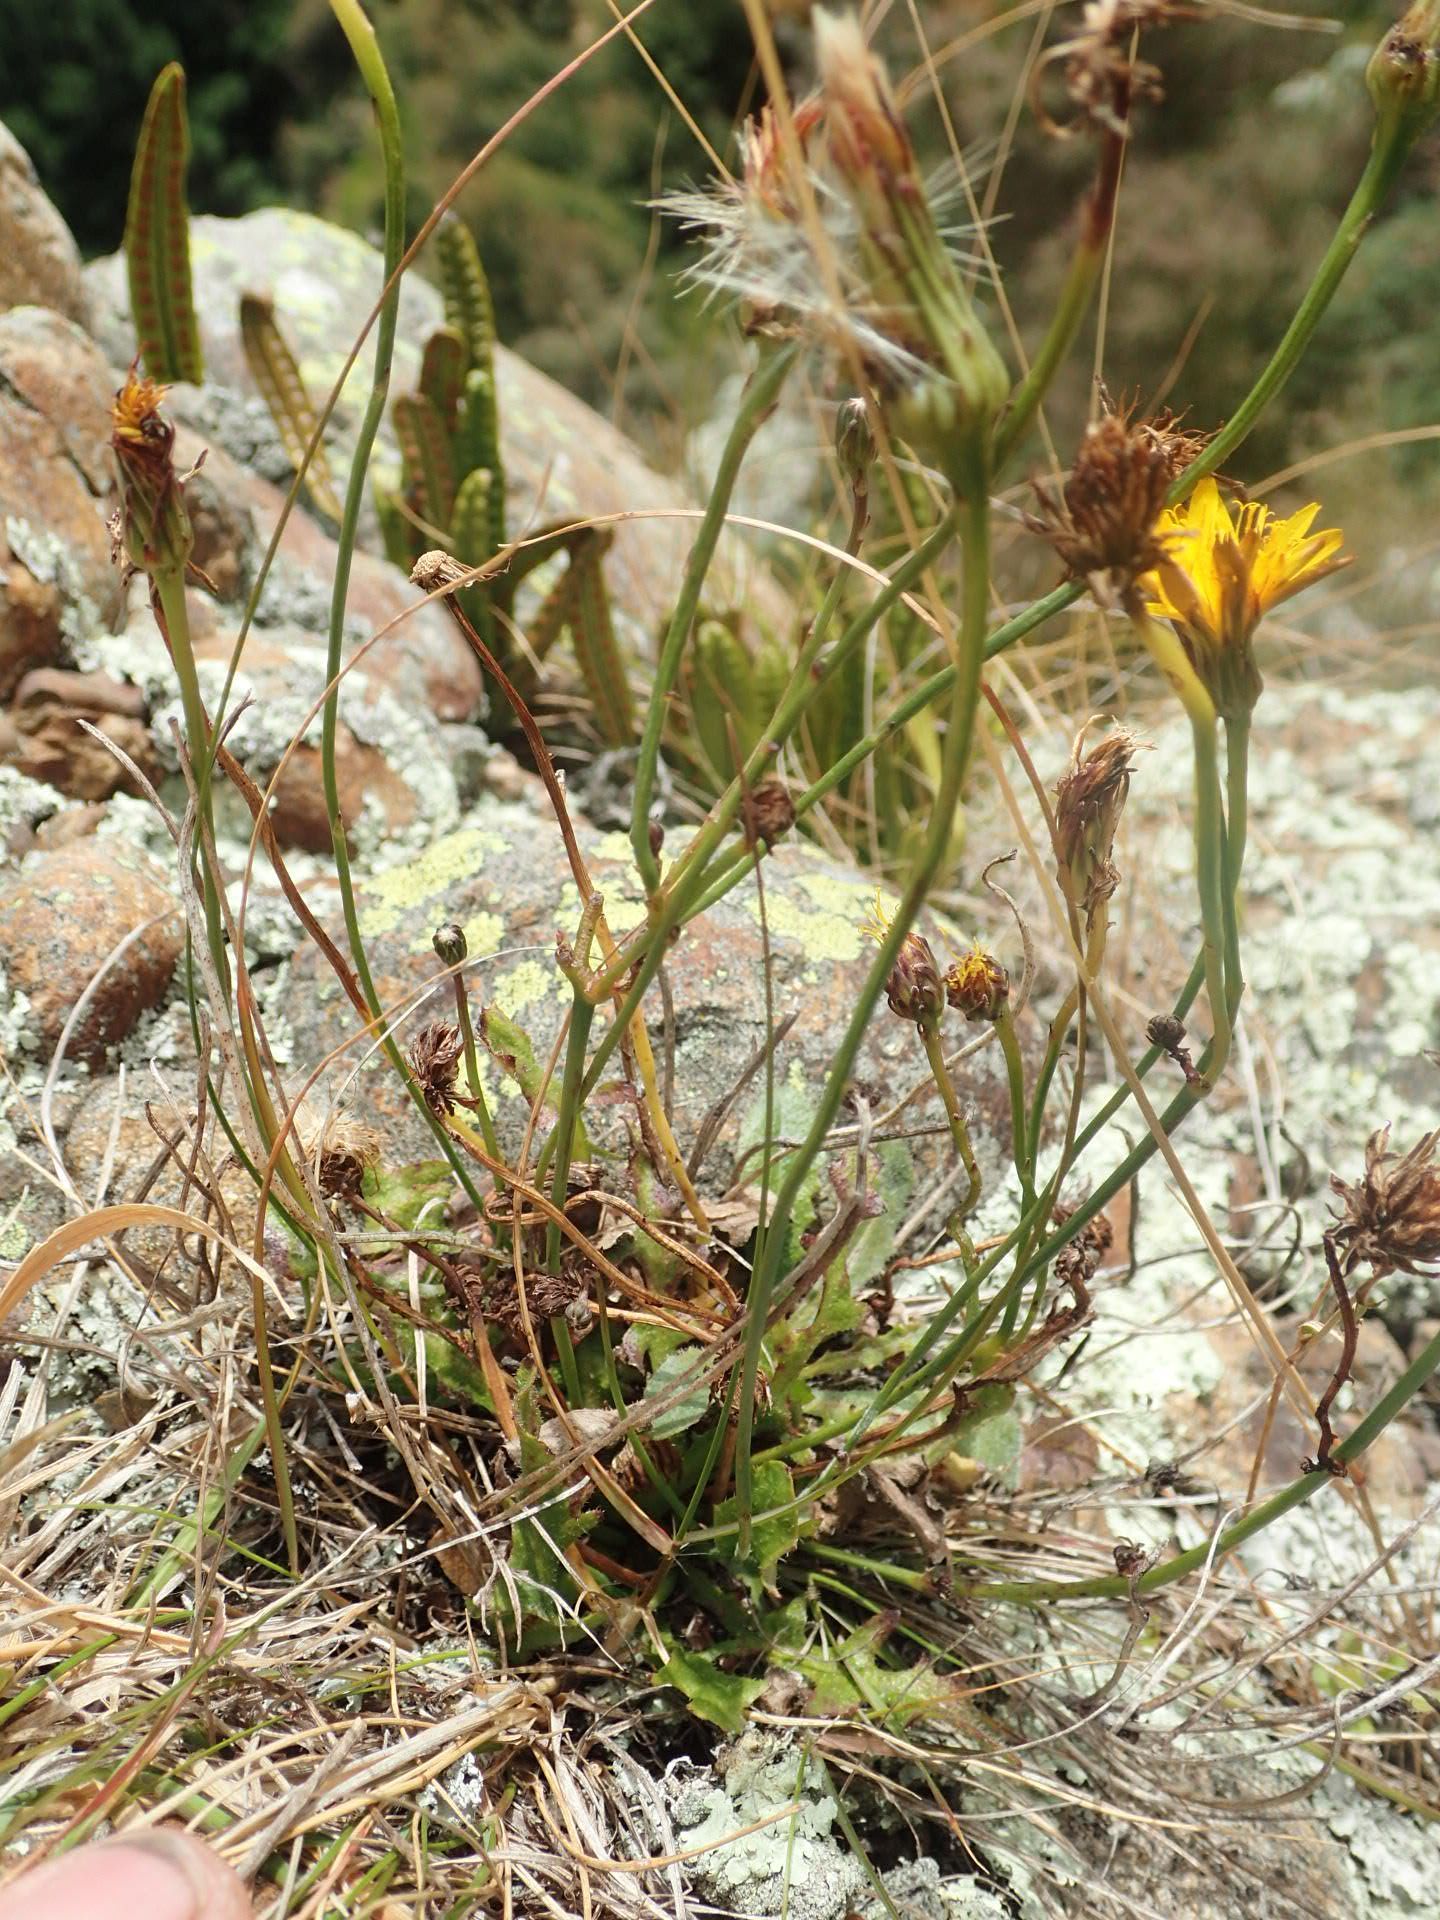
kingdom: Plantae
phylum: Tracheophyta
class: Magnoliopsida
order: Asterales
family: Asteraceae
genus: Hypochaeris
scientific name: Hypochaeris radicata
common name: Flatweed
